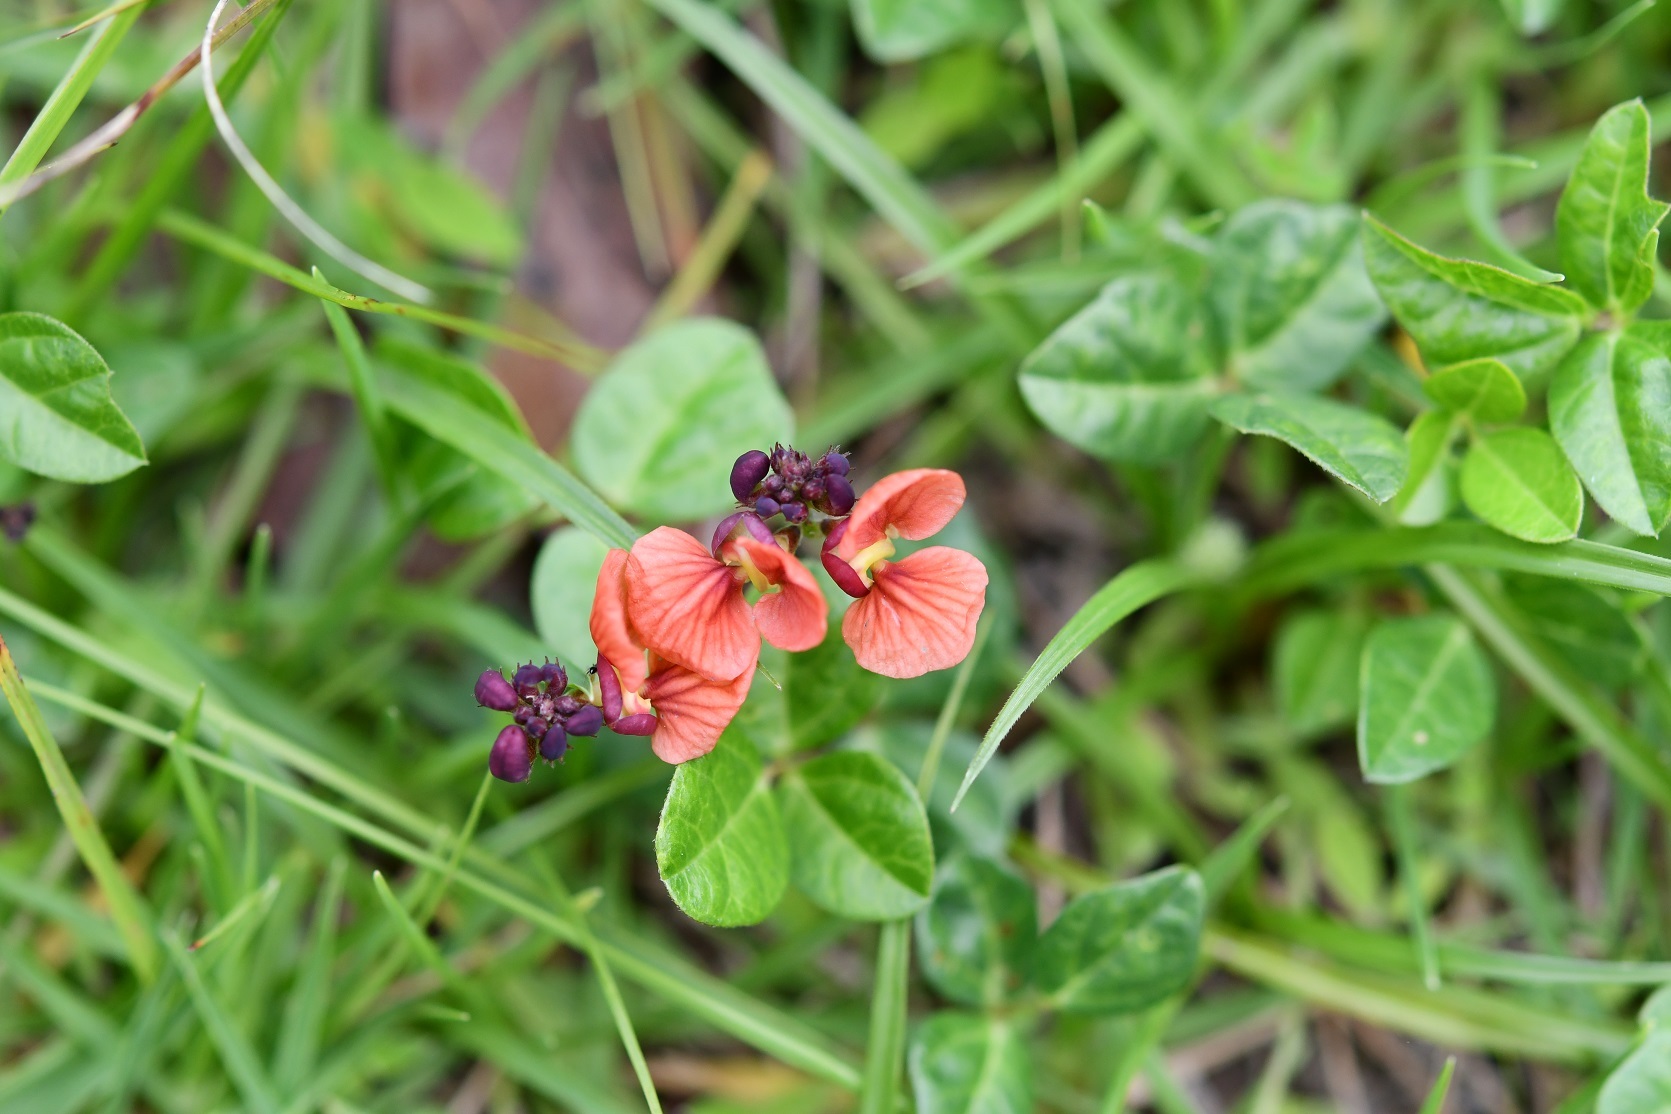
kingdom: Plantae
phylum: Tracheophyta
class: Magnoliopsida
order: Fabales
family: Fabaceae
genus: Macroptilium
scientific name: Macroptilium gibbosifolium
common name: Variableleaf bushbean
